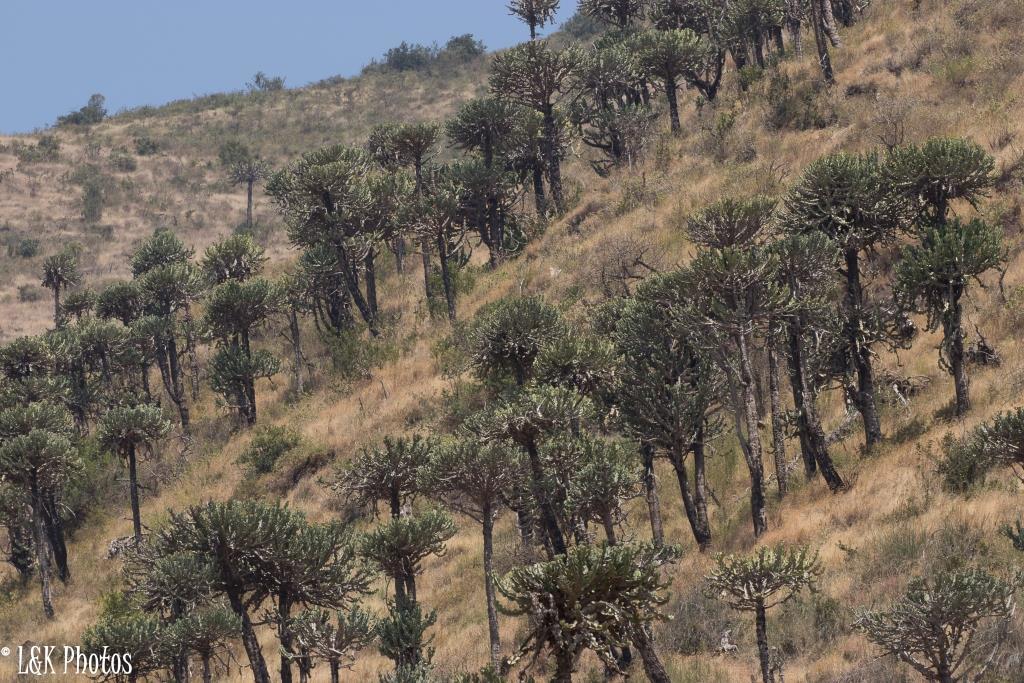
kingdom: Plantae
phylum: Tracheophyta
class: Magnoliopsida
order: Malpighiales
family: Euphorbiaceae
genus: Euphorbia
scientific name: Euphorbia cooperi
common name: Candelabra tree
